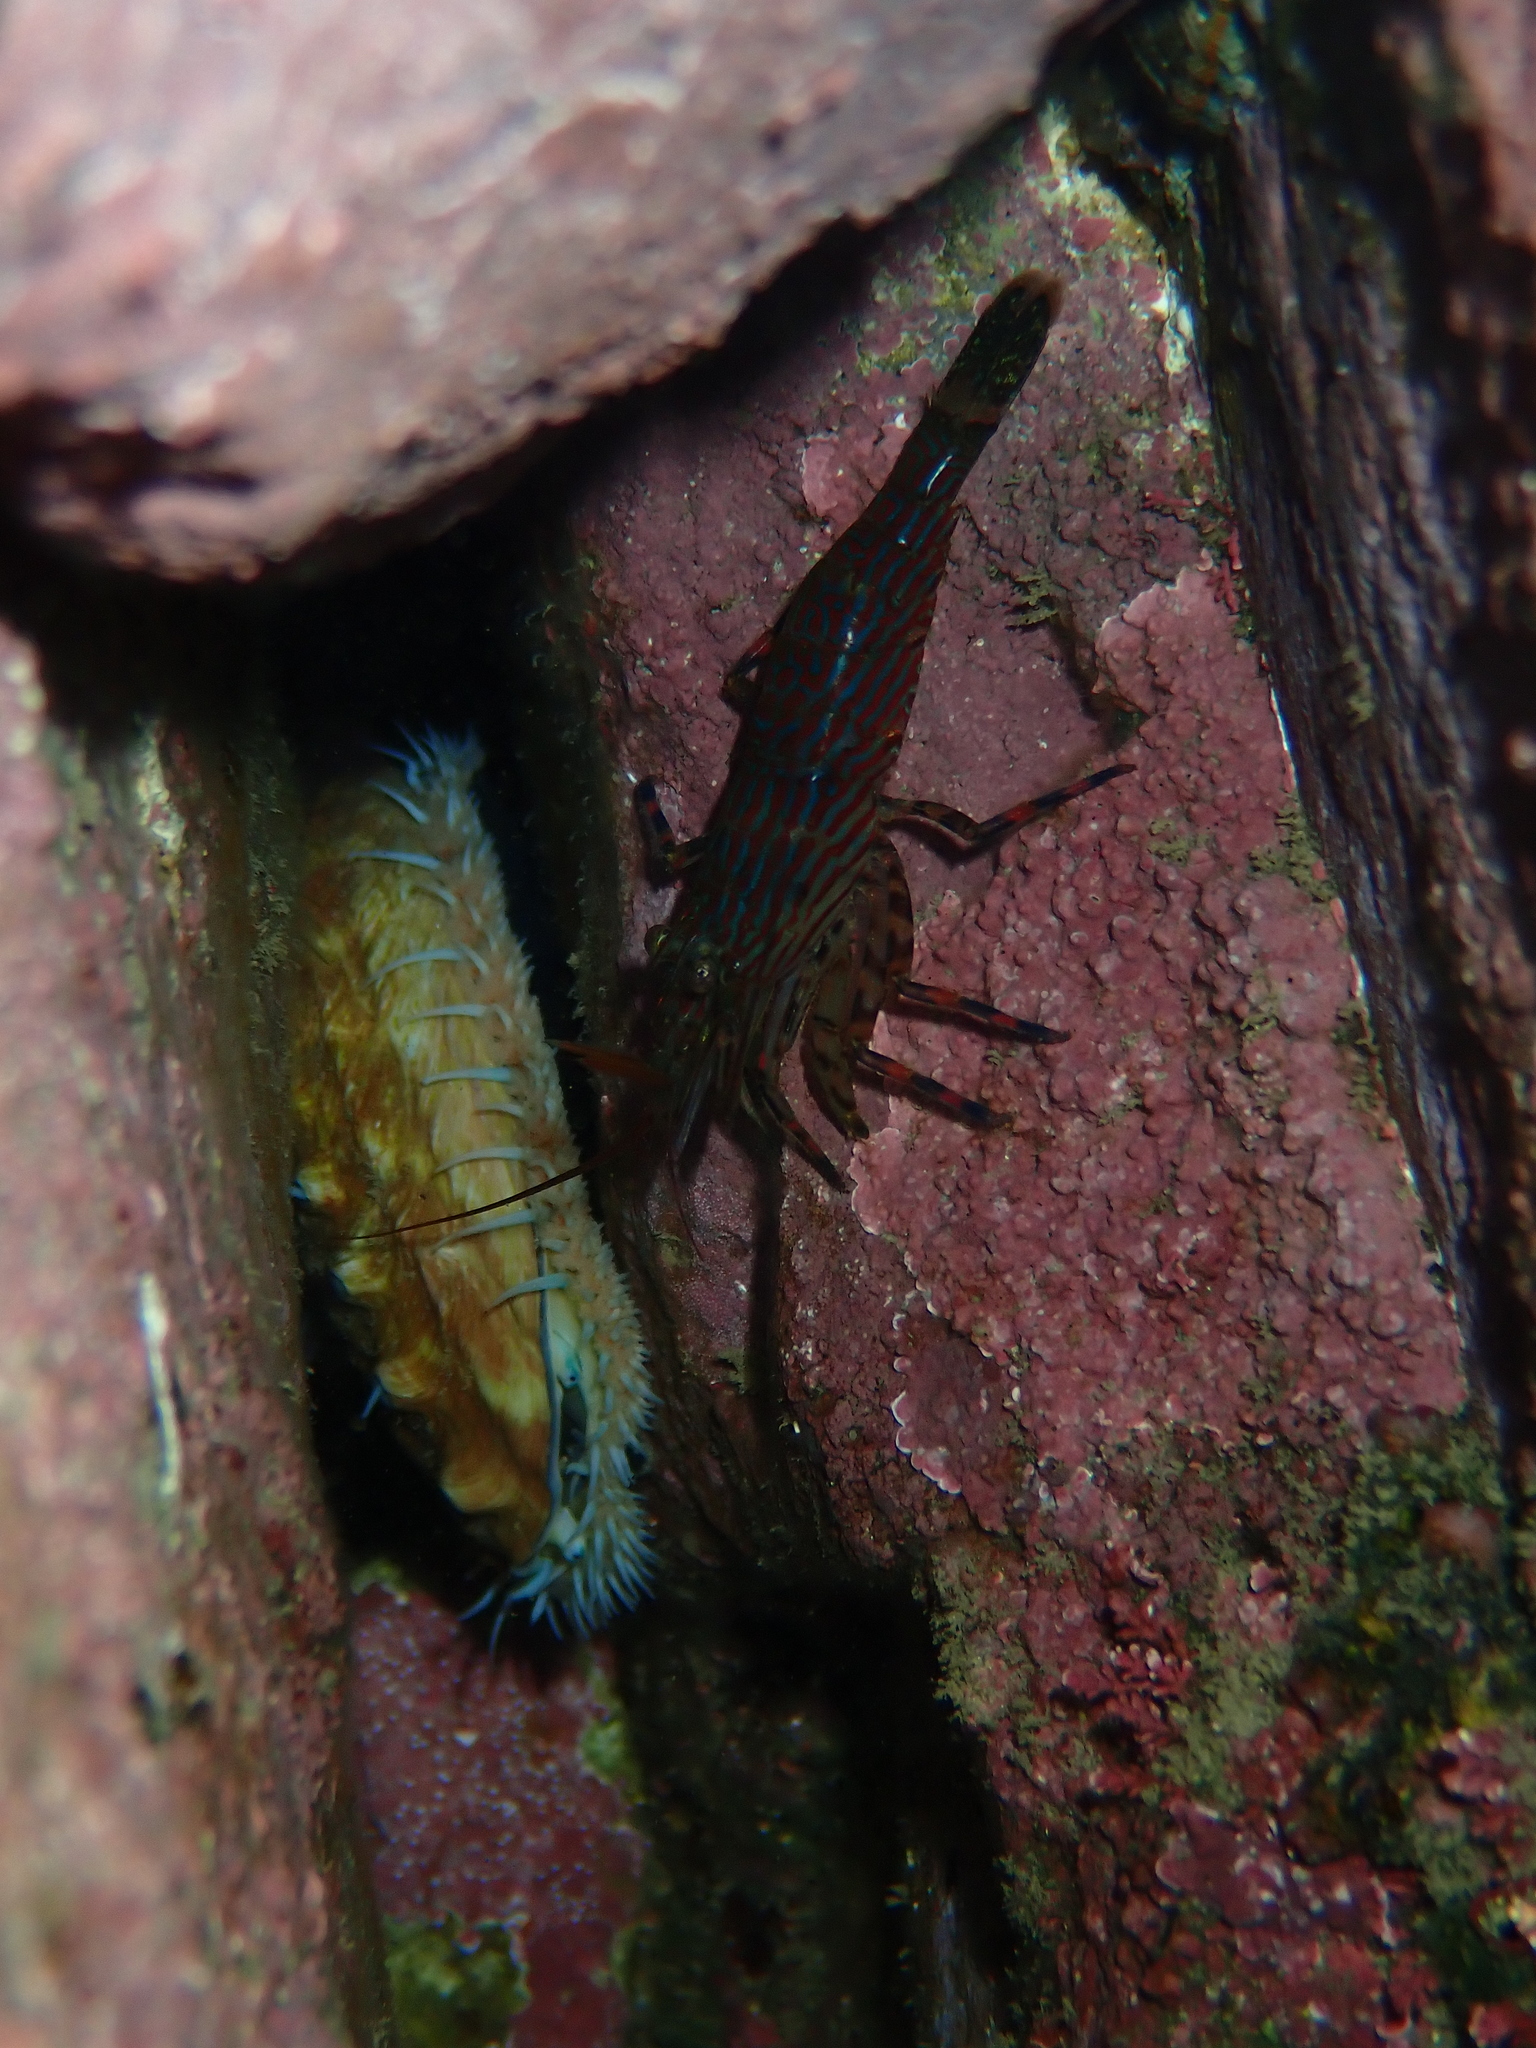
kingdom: Animalia
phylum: Arthropoda
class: Malacostraca
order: Decapoda
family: Hippolytidae
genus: Alope
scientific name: Alope spinifrons
